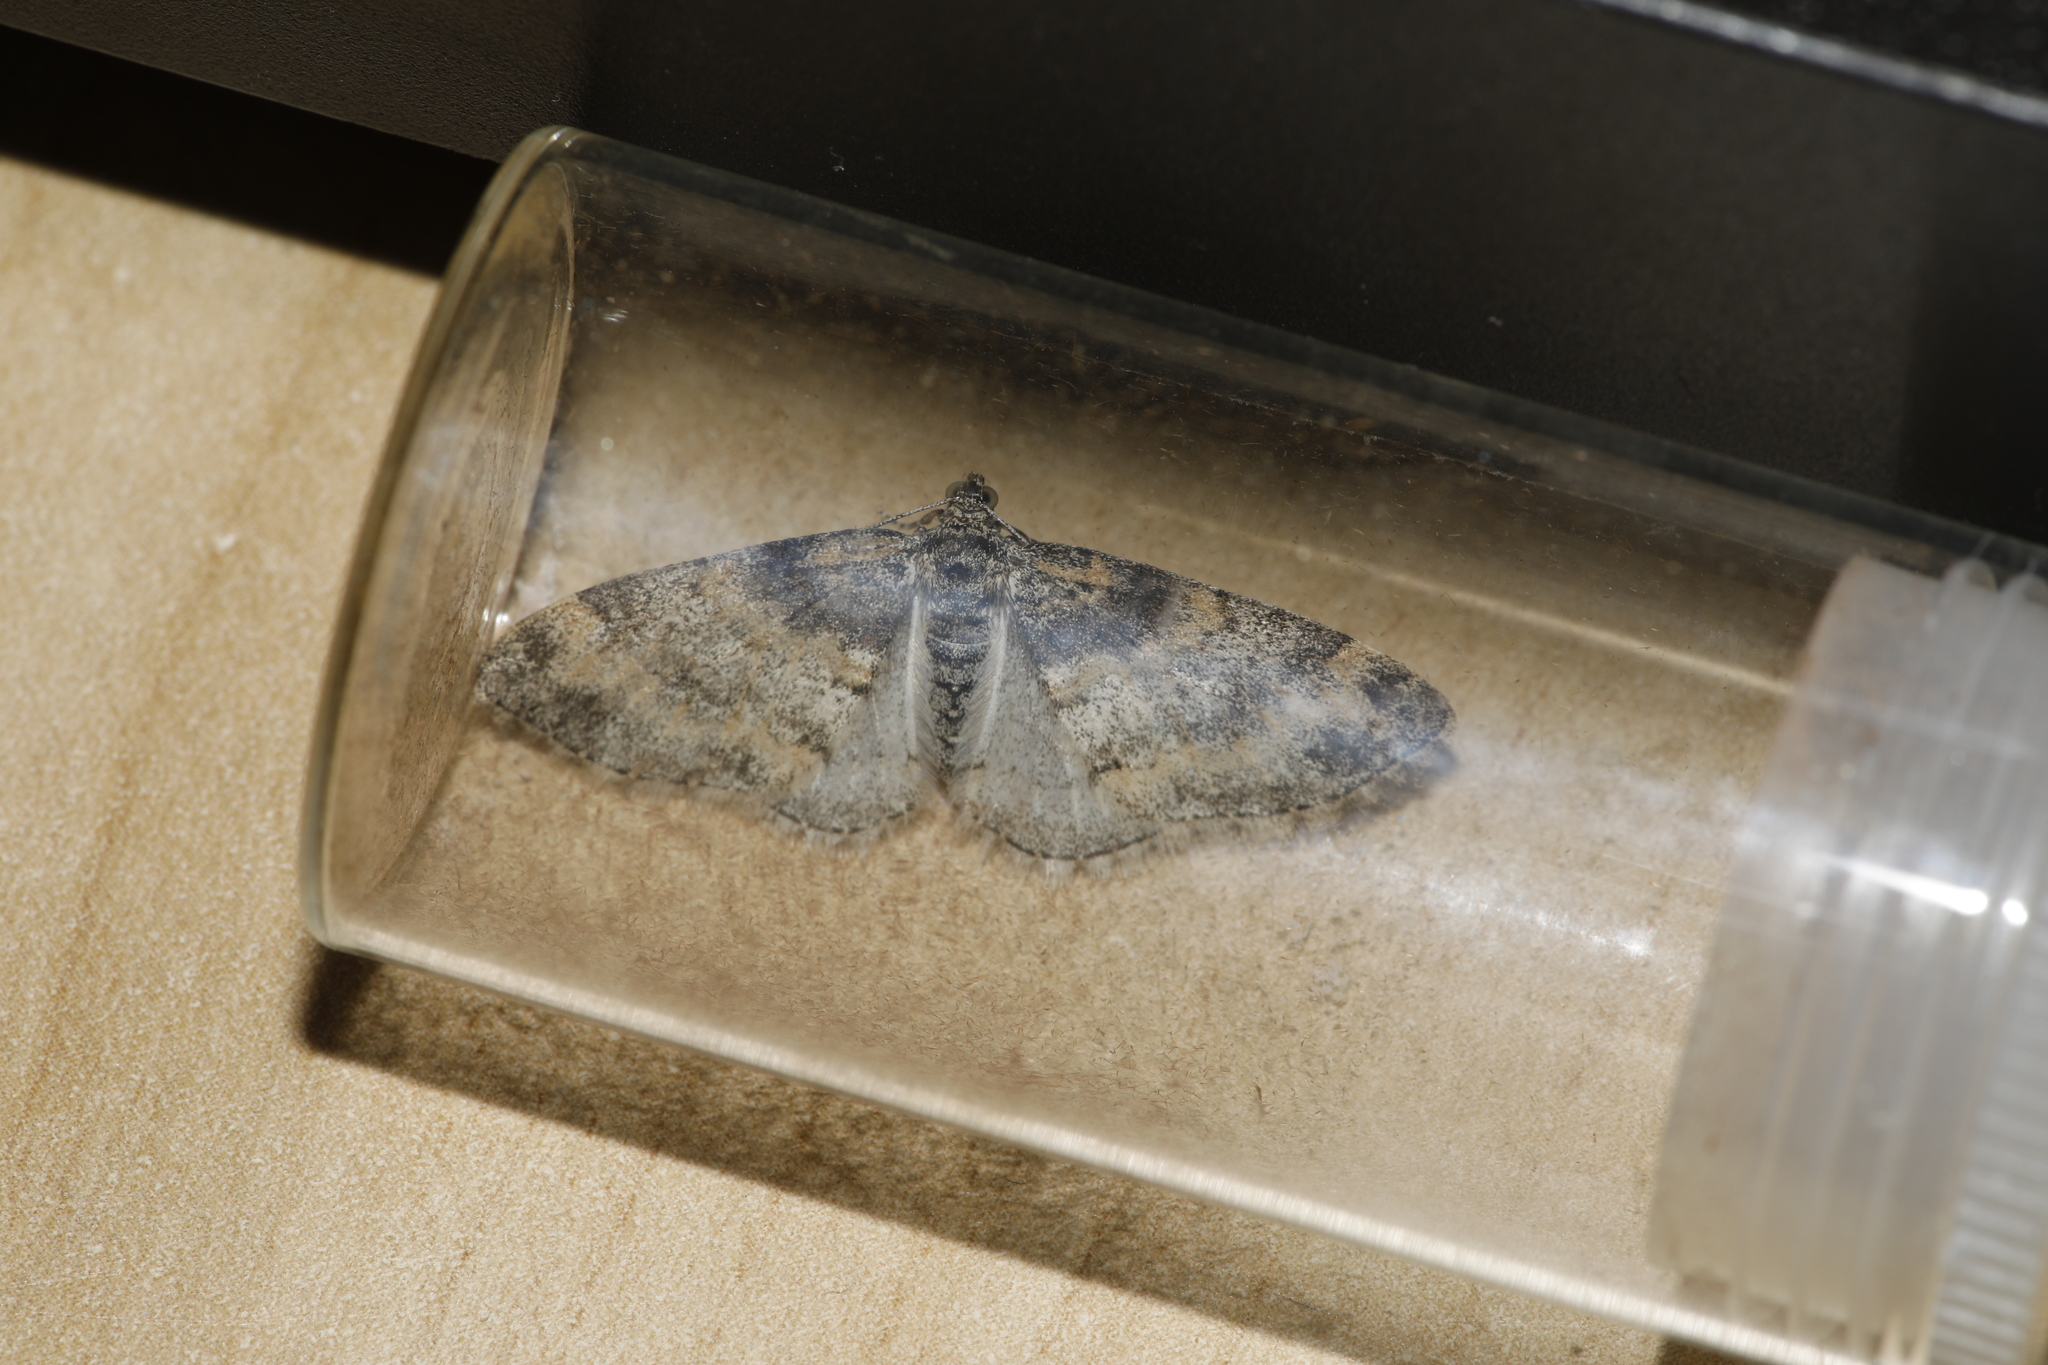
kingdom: Animalia
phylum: Arthropoda
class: Insecta
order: Lepidoptera
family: Geometridae
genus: Lobophora
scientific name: Lobophora halterata
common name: Seraphim
